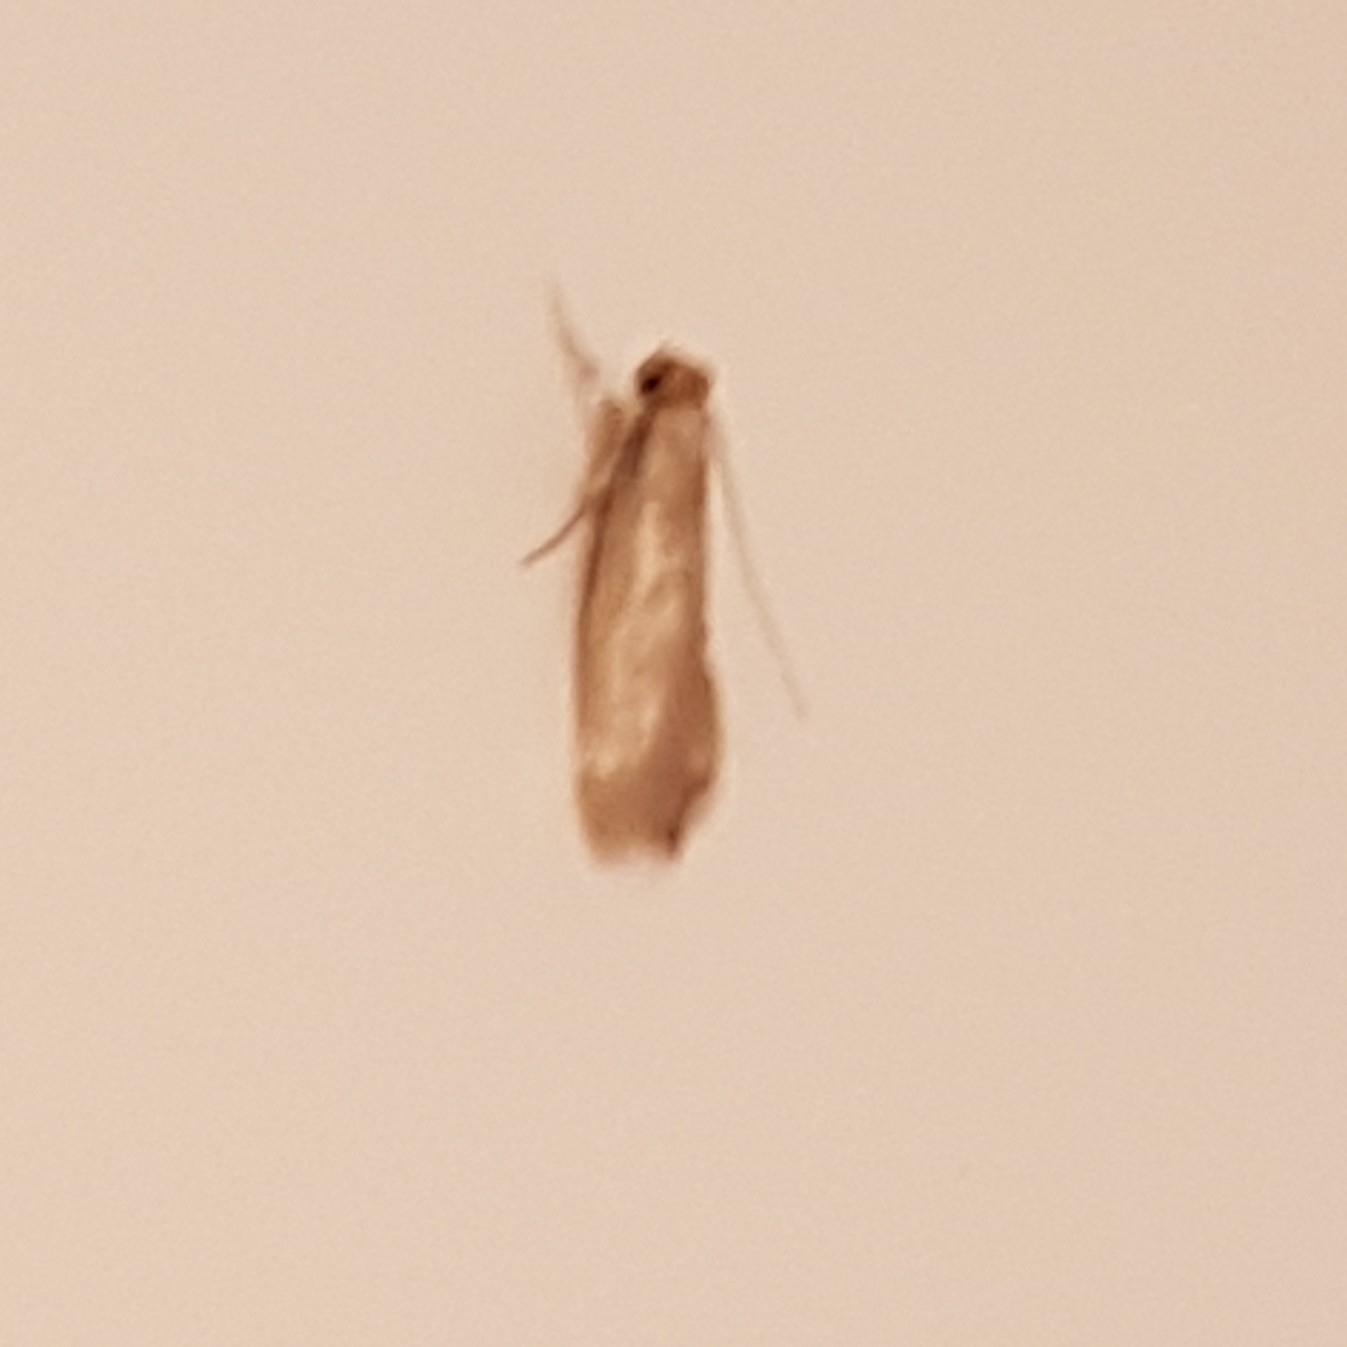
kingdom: Animalia
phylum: Arthropoda
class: Insecta
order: Lepidoptera
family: Tineidae
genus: Tineola
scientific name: Tineola bisselliella
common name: Webbing clothes moth
